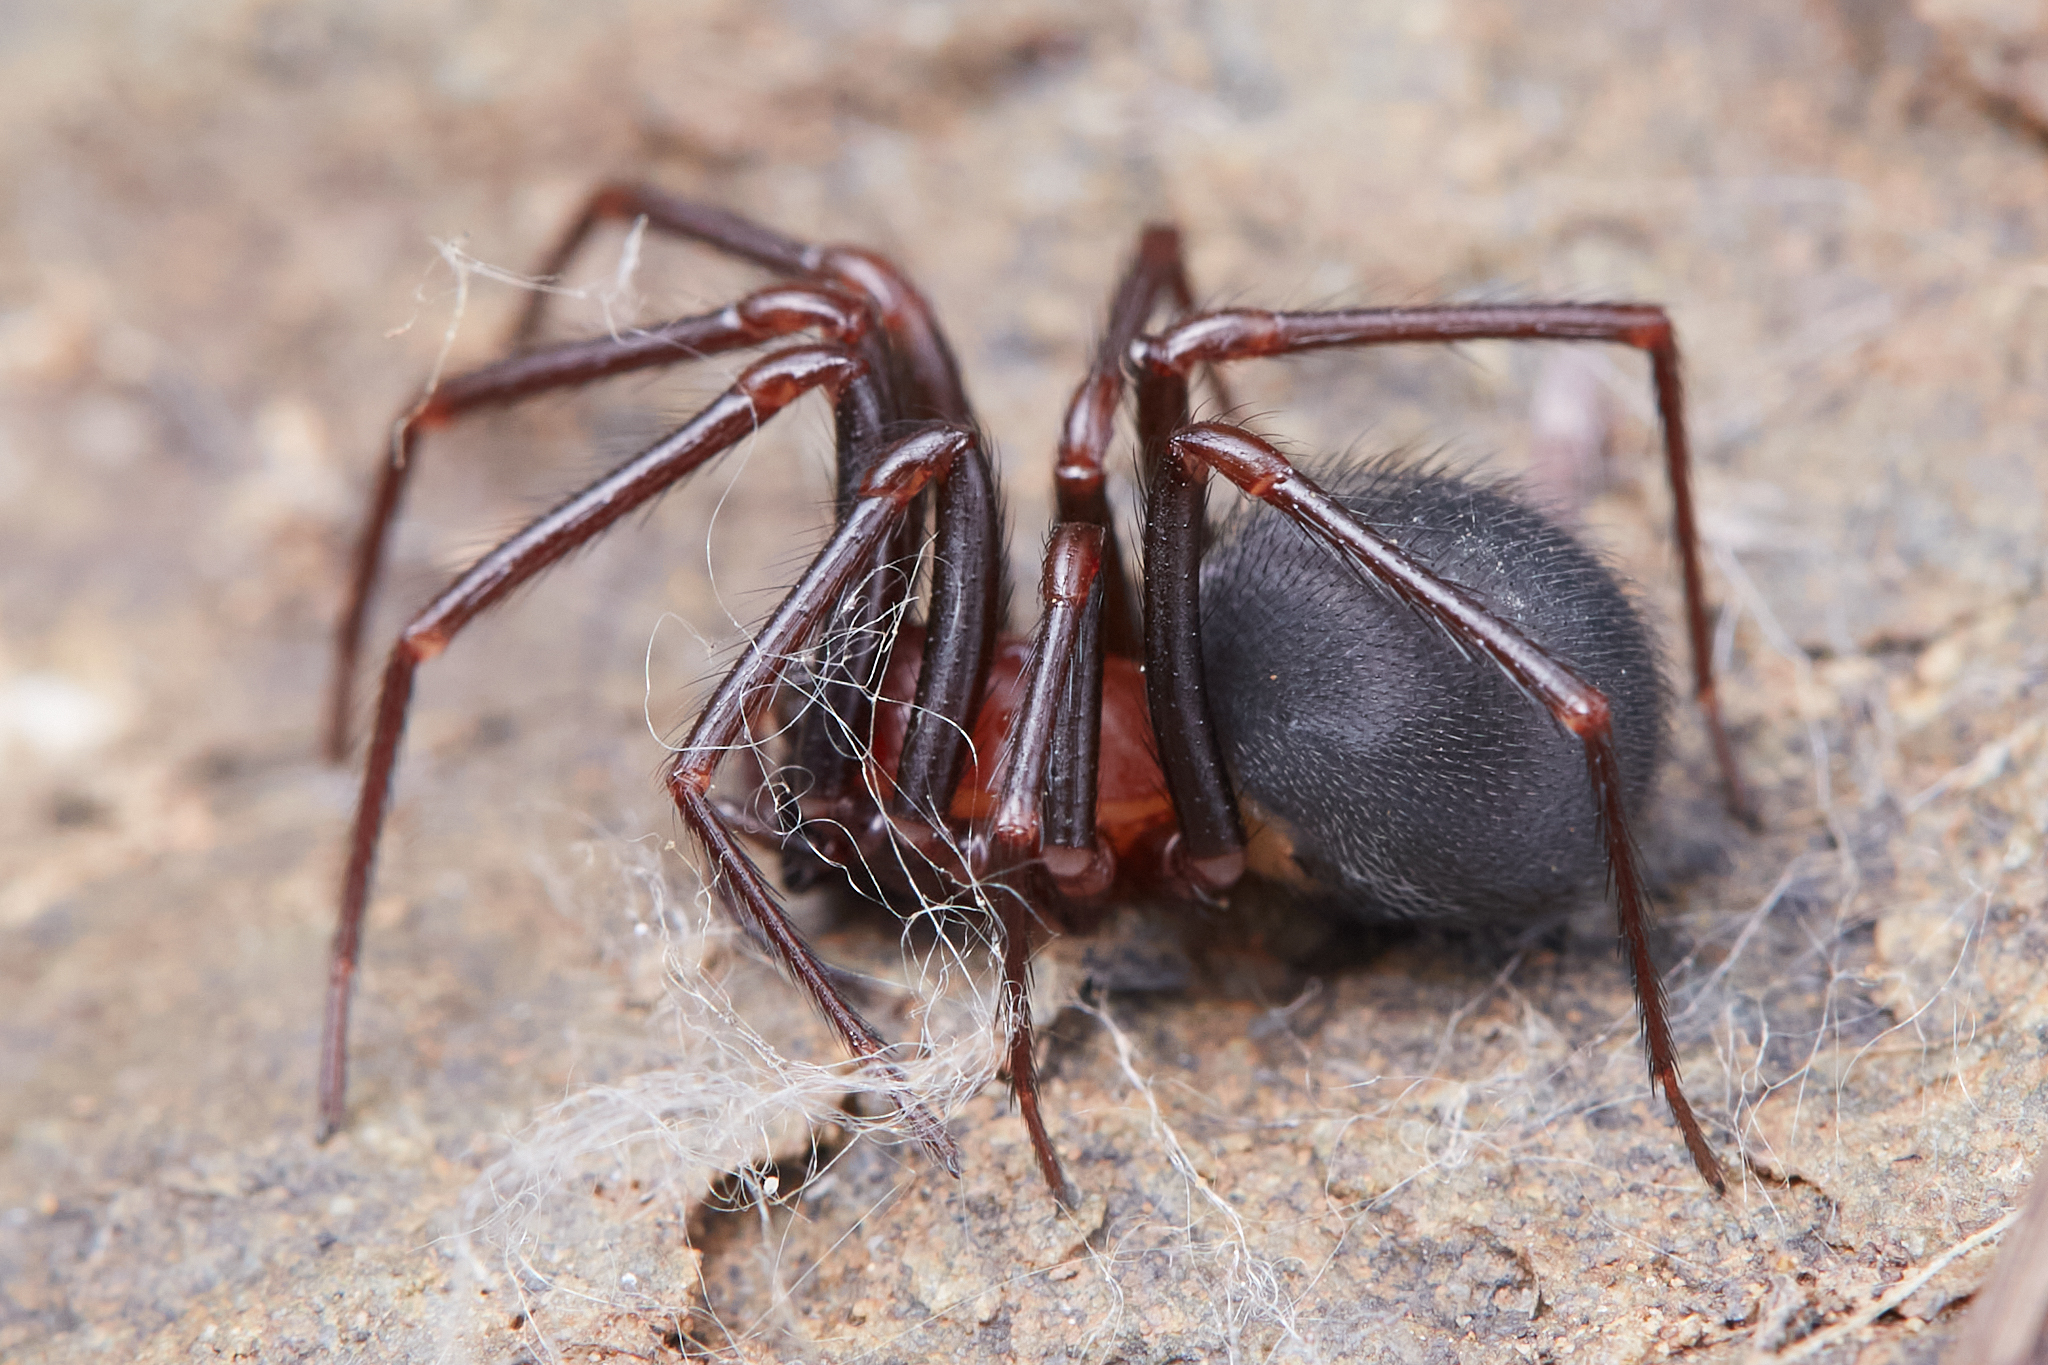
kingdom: Animalia
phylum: Arthropoda
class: Arachnida
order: Araneae
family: Plectreuridae
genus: Kibramoa
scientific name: Kibramoa
